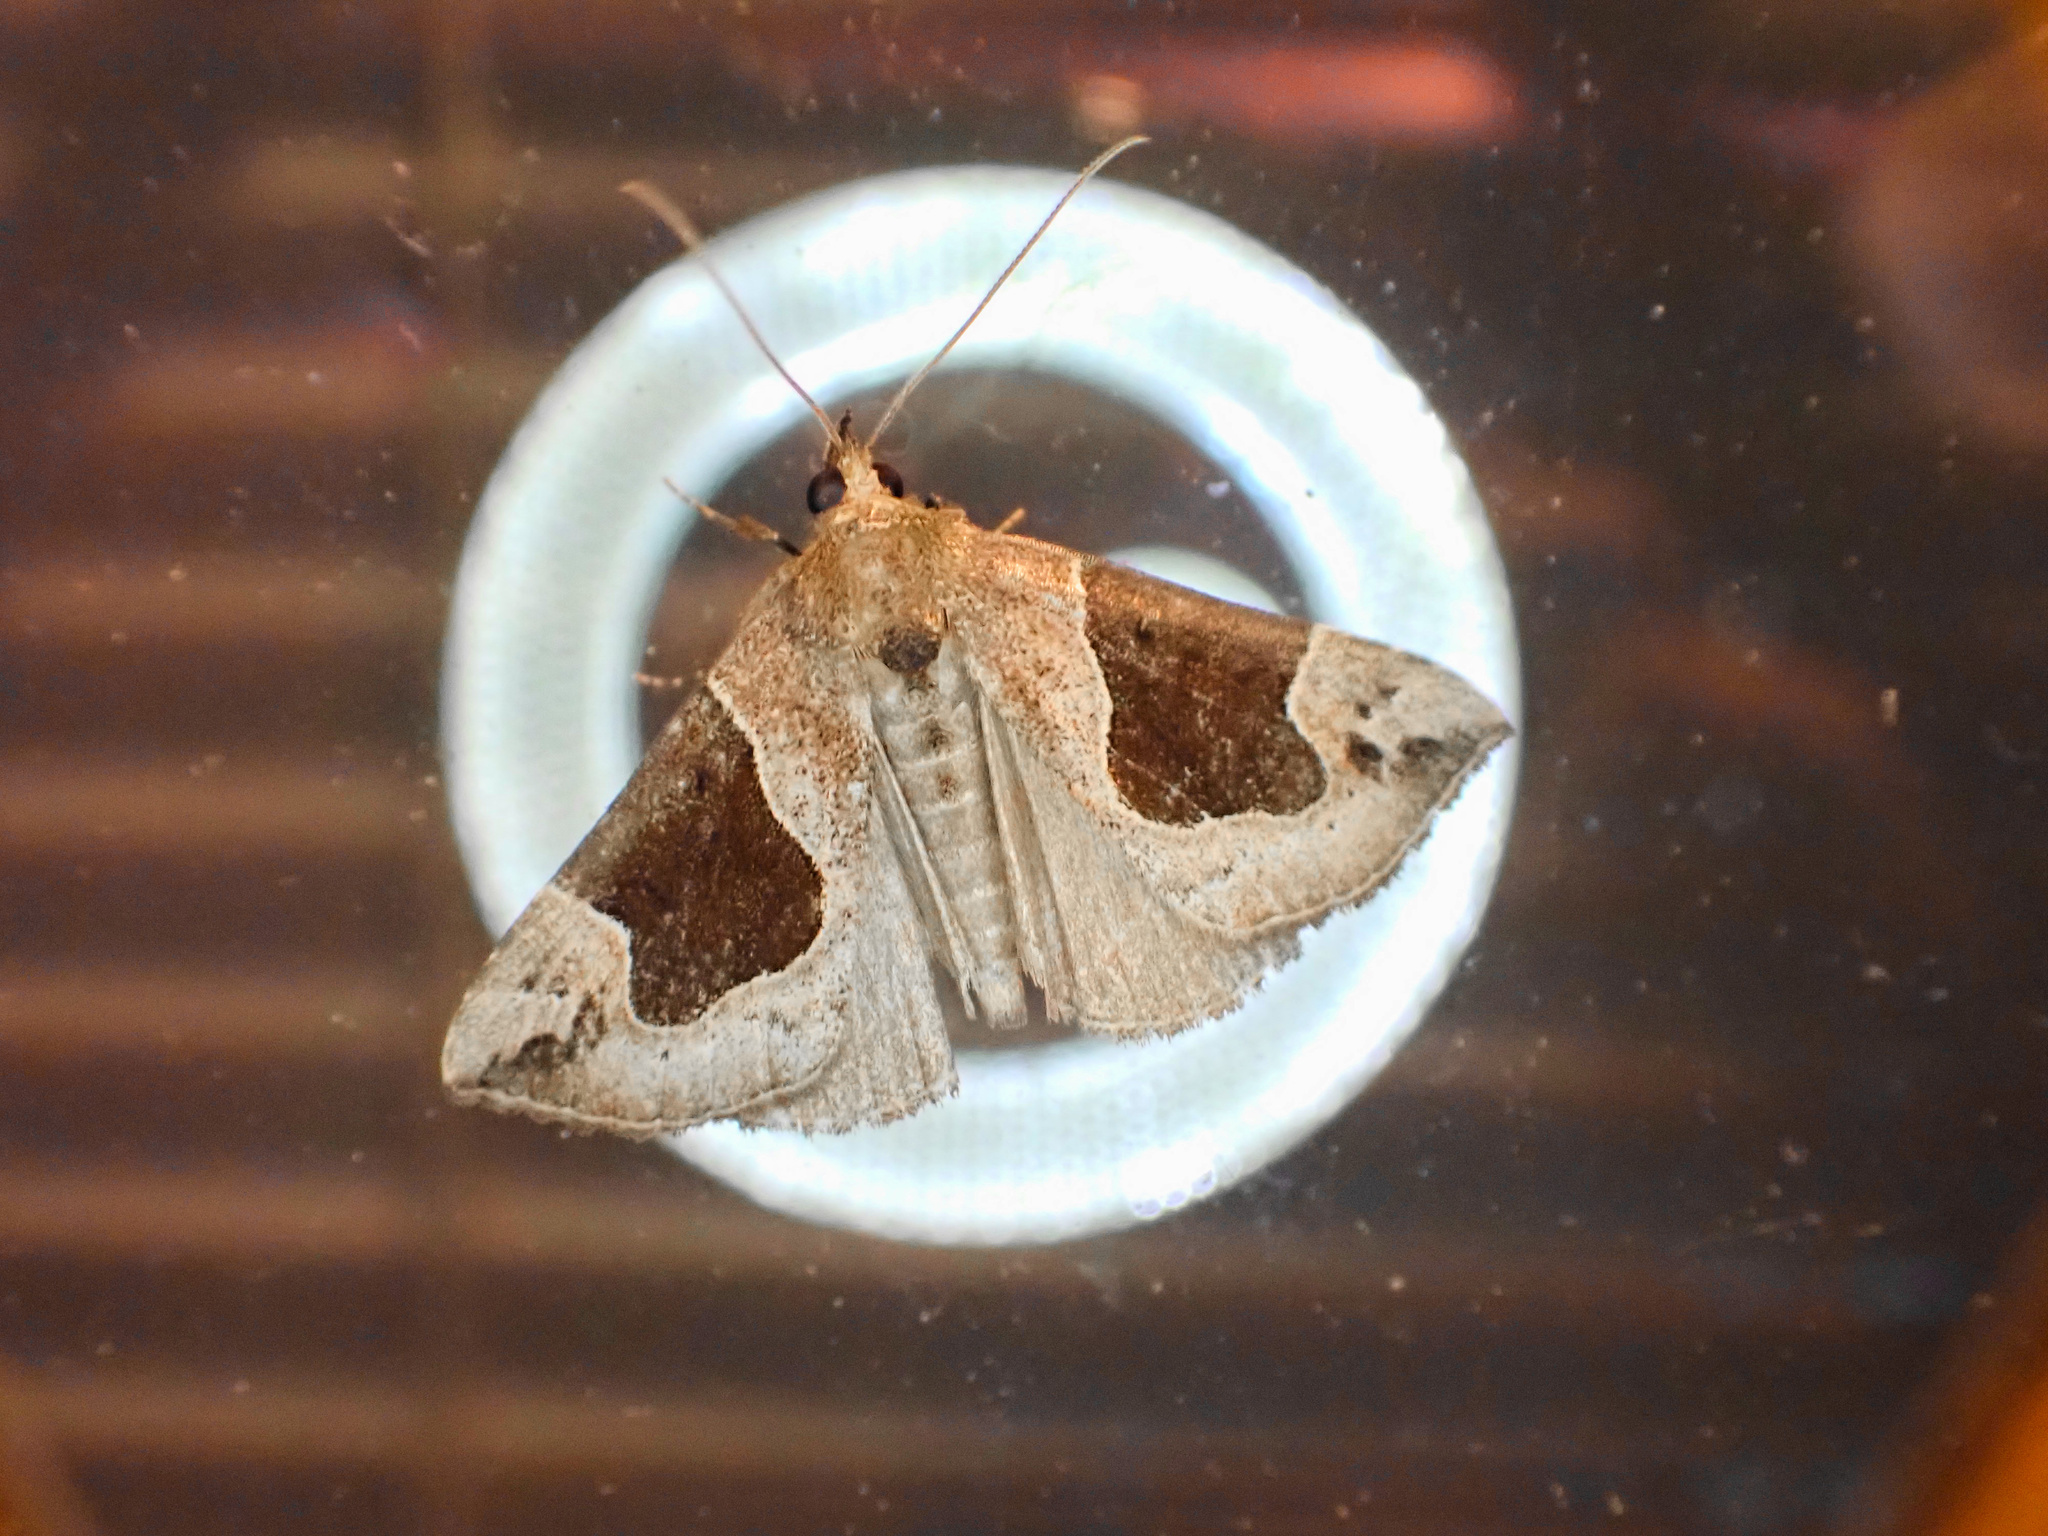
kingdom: Animalia
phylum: Arthropoda
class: Insecta
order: Lepidoptera
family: Erebidae
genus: Hypena
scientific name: Hypena manalis
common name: Flowing-line bomolocha moth
